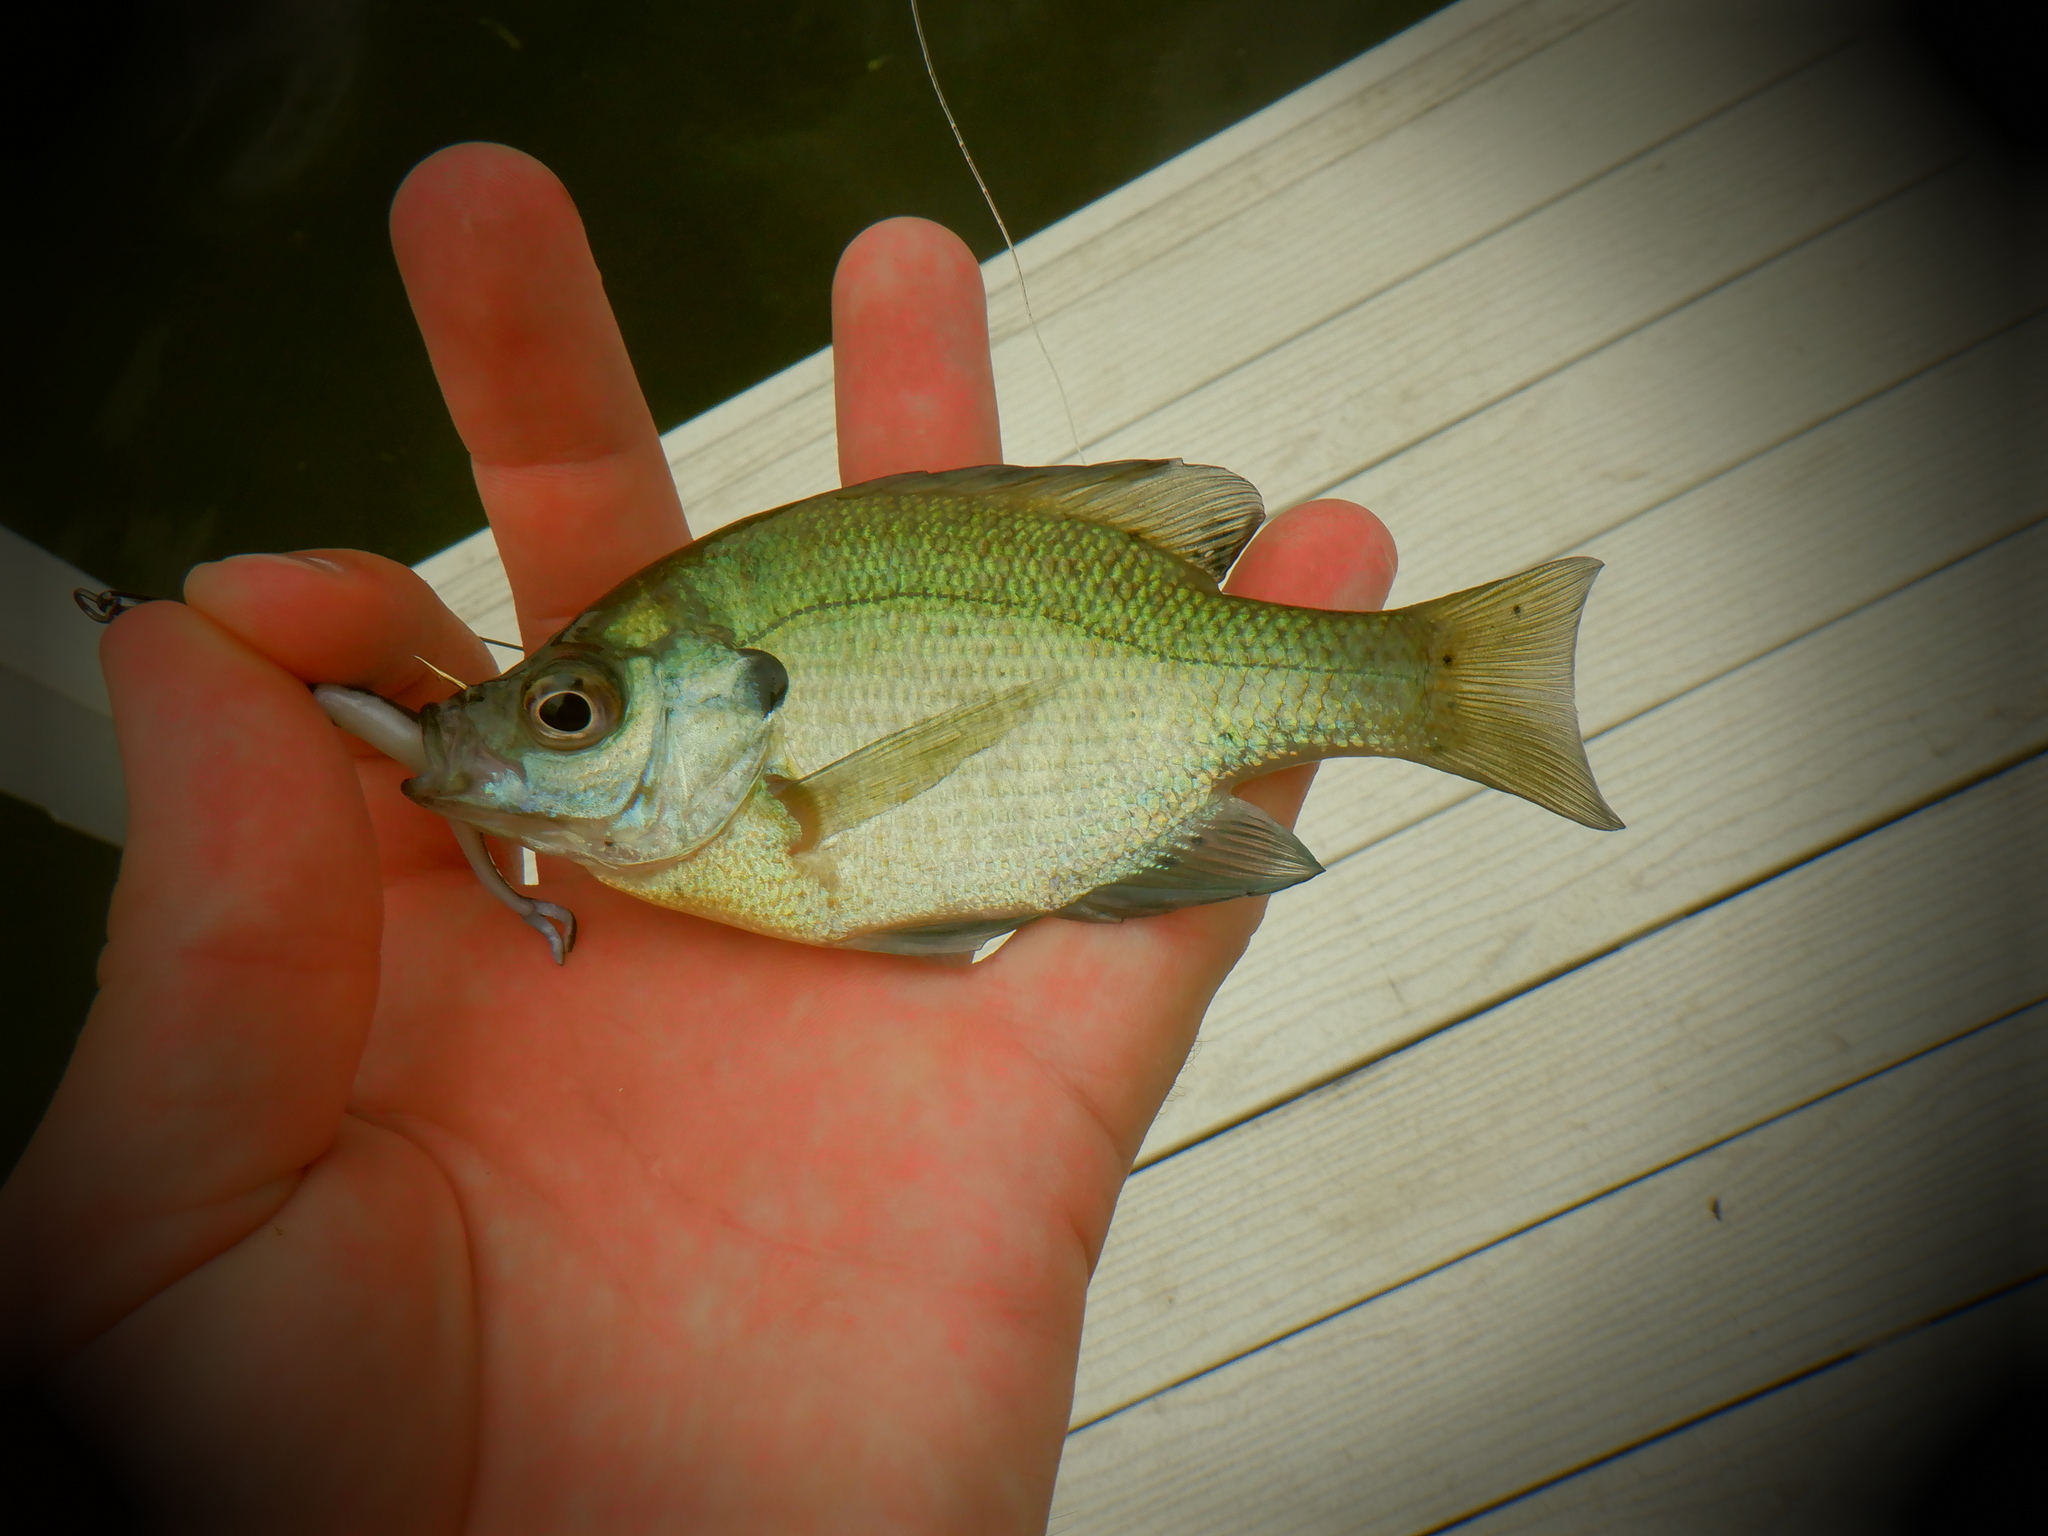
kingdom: Animalia
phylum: Chordata
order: Perciformes
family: Centrarchidae
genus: Lepomis
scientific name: Lepomis macrochirus
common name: Bluegill
